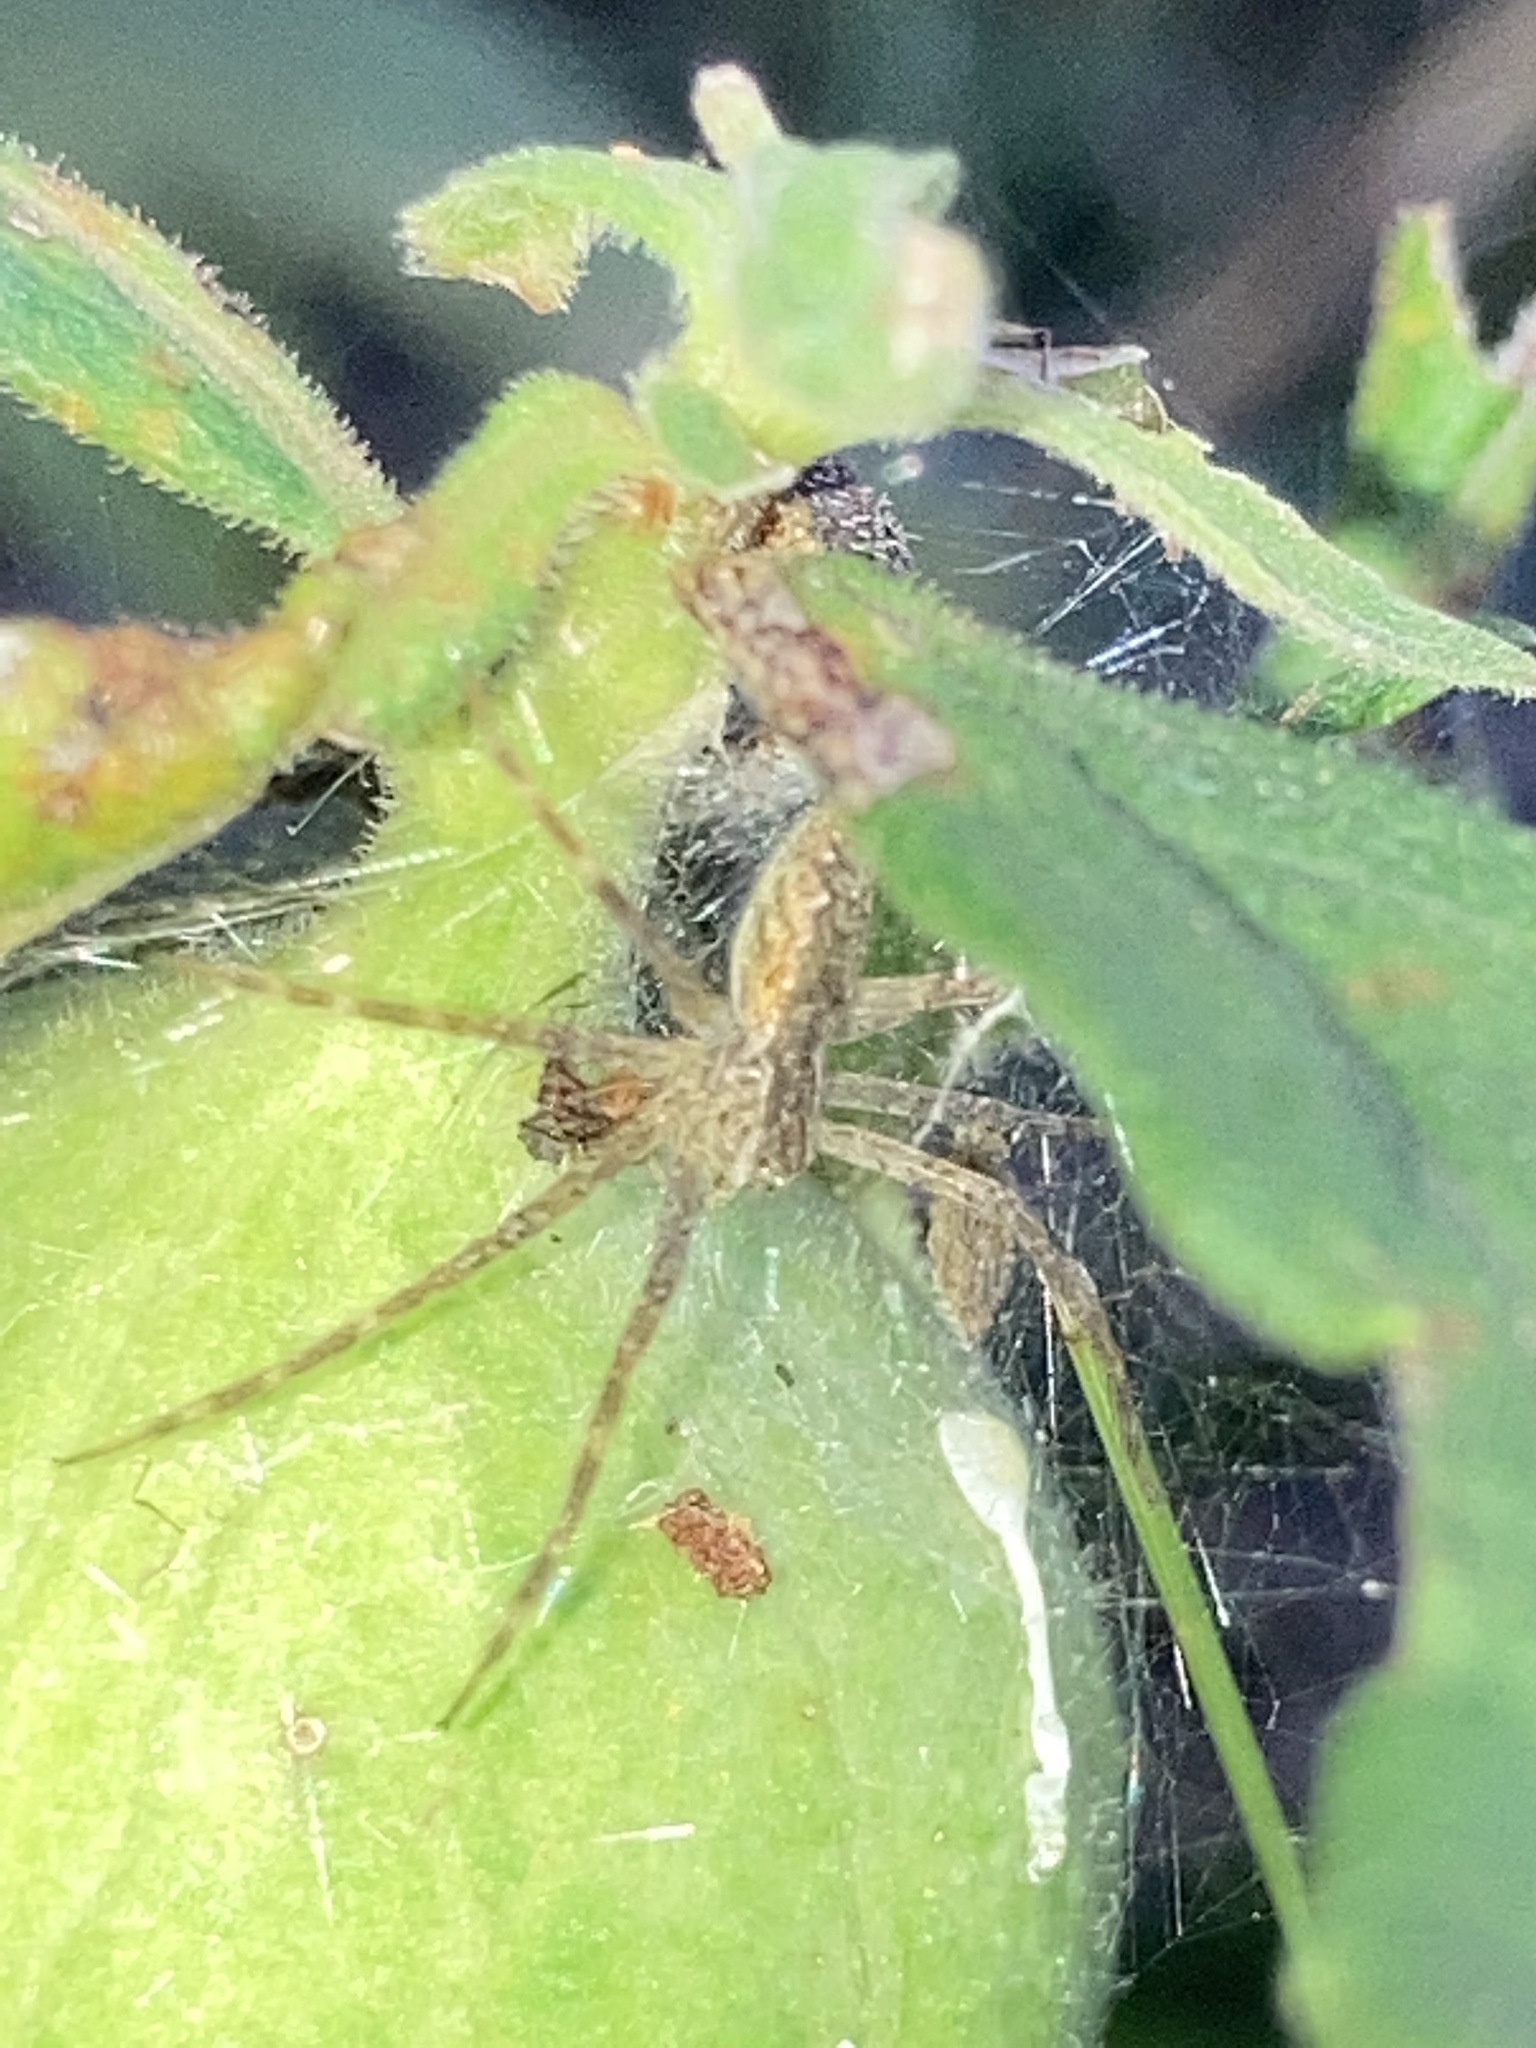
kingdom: Animalia
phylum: Arthropoda
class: Arachnida
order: Araneae
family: Pisauridae
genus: Pisaurina
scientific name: Pisaurina mira
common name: American nursery web spider
